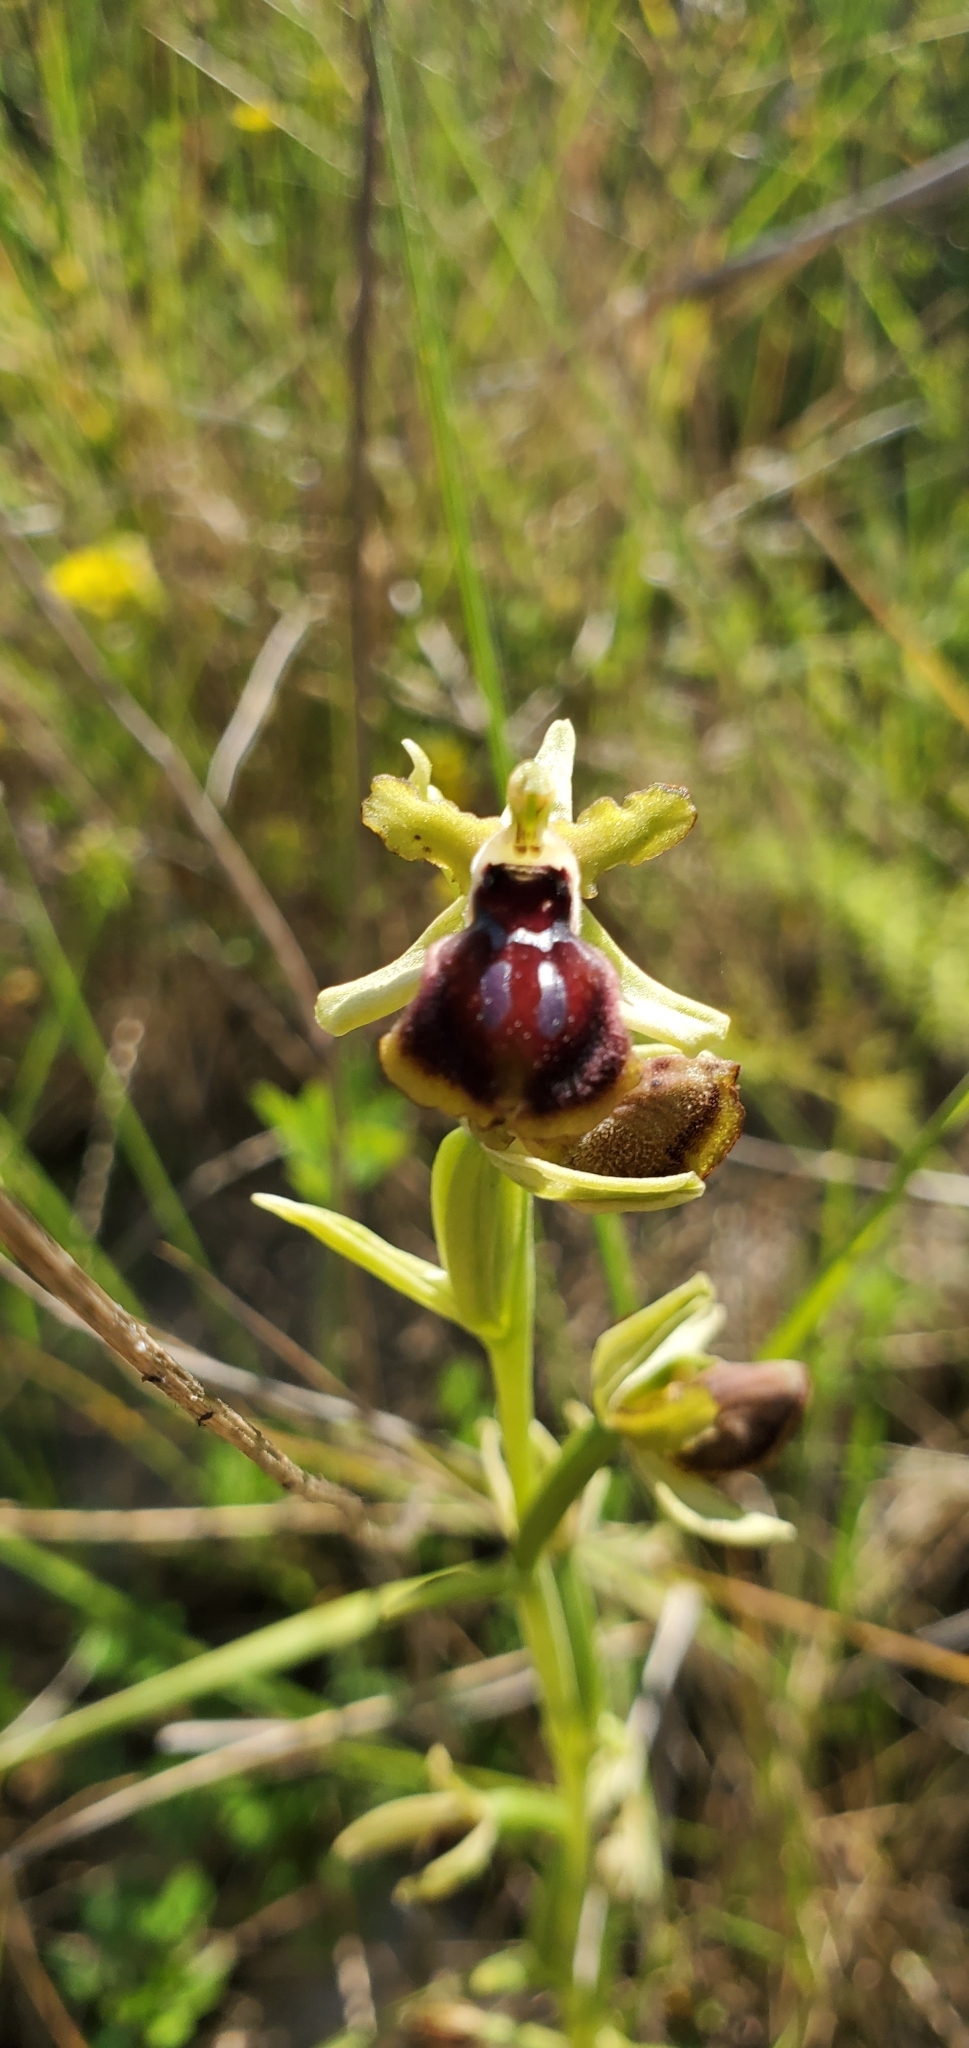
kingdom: Plantae
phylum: Tracheophyta
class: Liliopsida
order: Asparagales
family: Orchidaceae
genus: Ophrys
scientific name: Ophrys sphegodes
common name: Early spider-orchid
